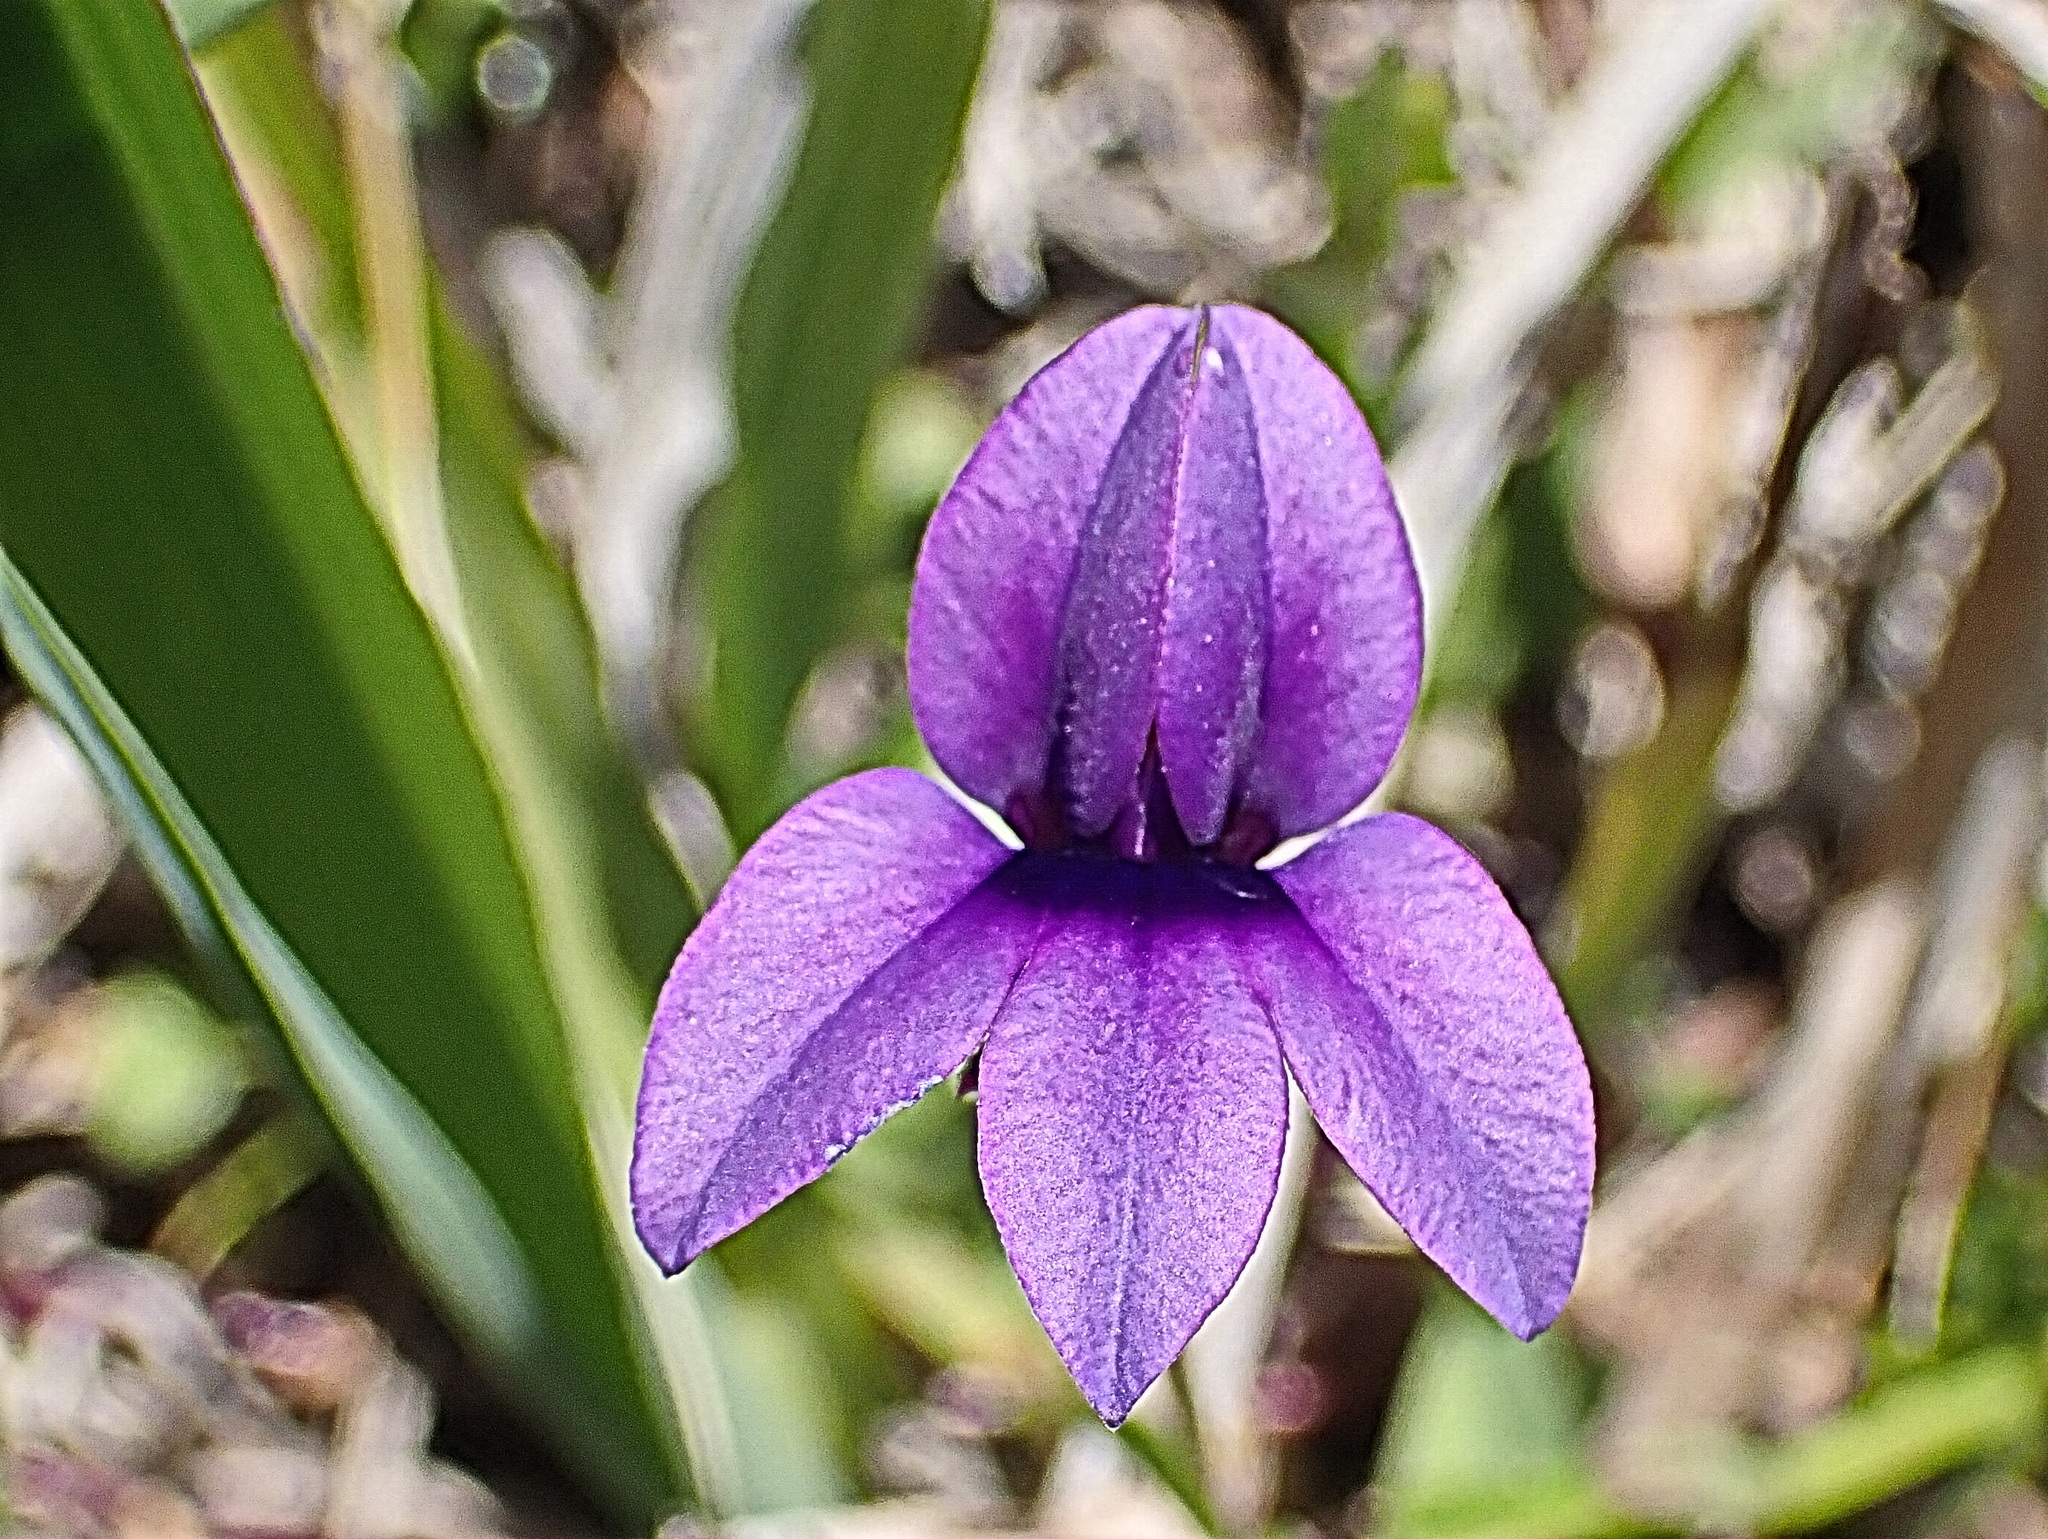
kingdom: Plantae
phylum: Tracheophyta
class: Magnoliopsida
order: Asterales
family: Campanulaceae
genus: Monopsis
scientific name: Monopsis unidentata
